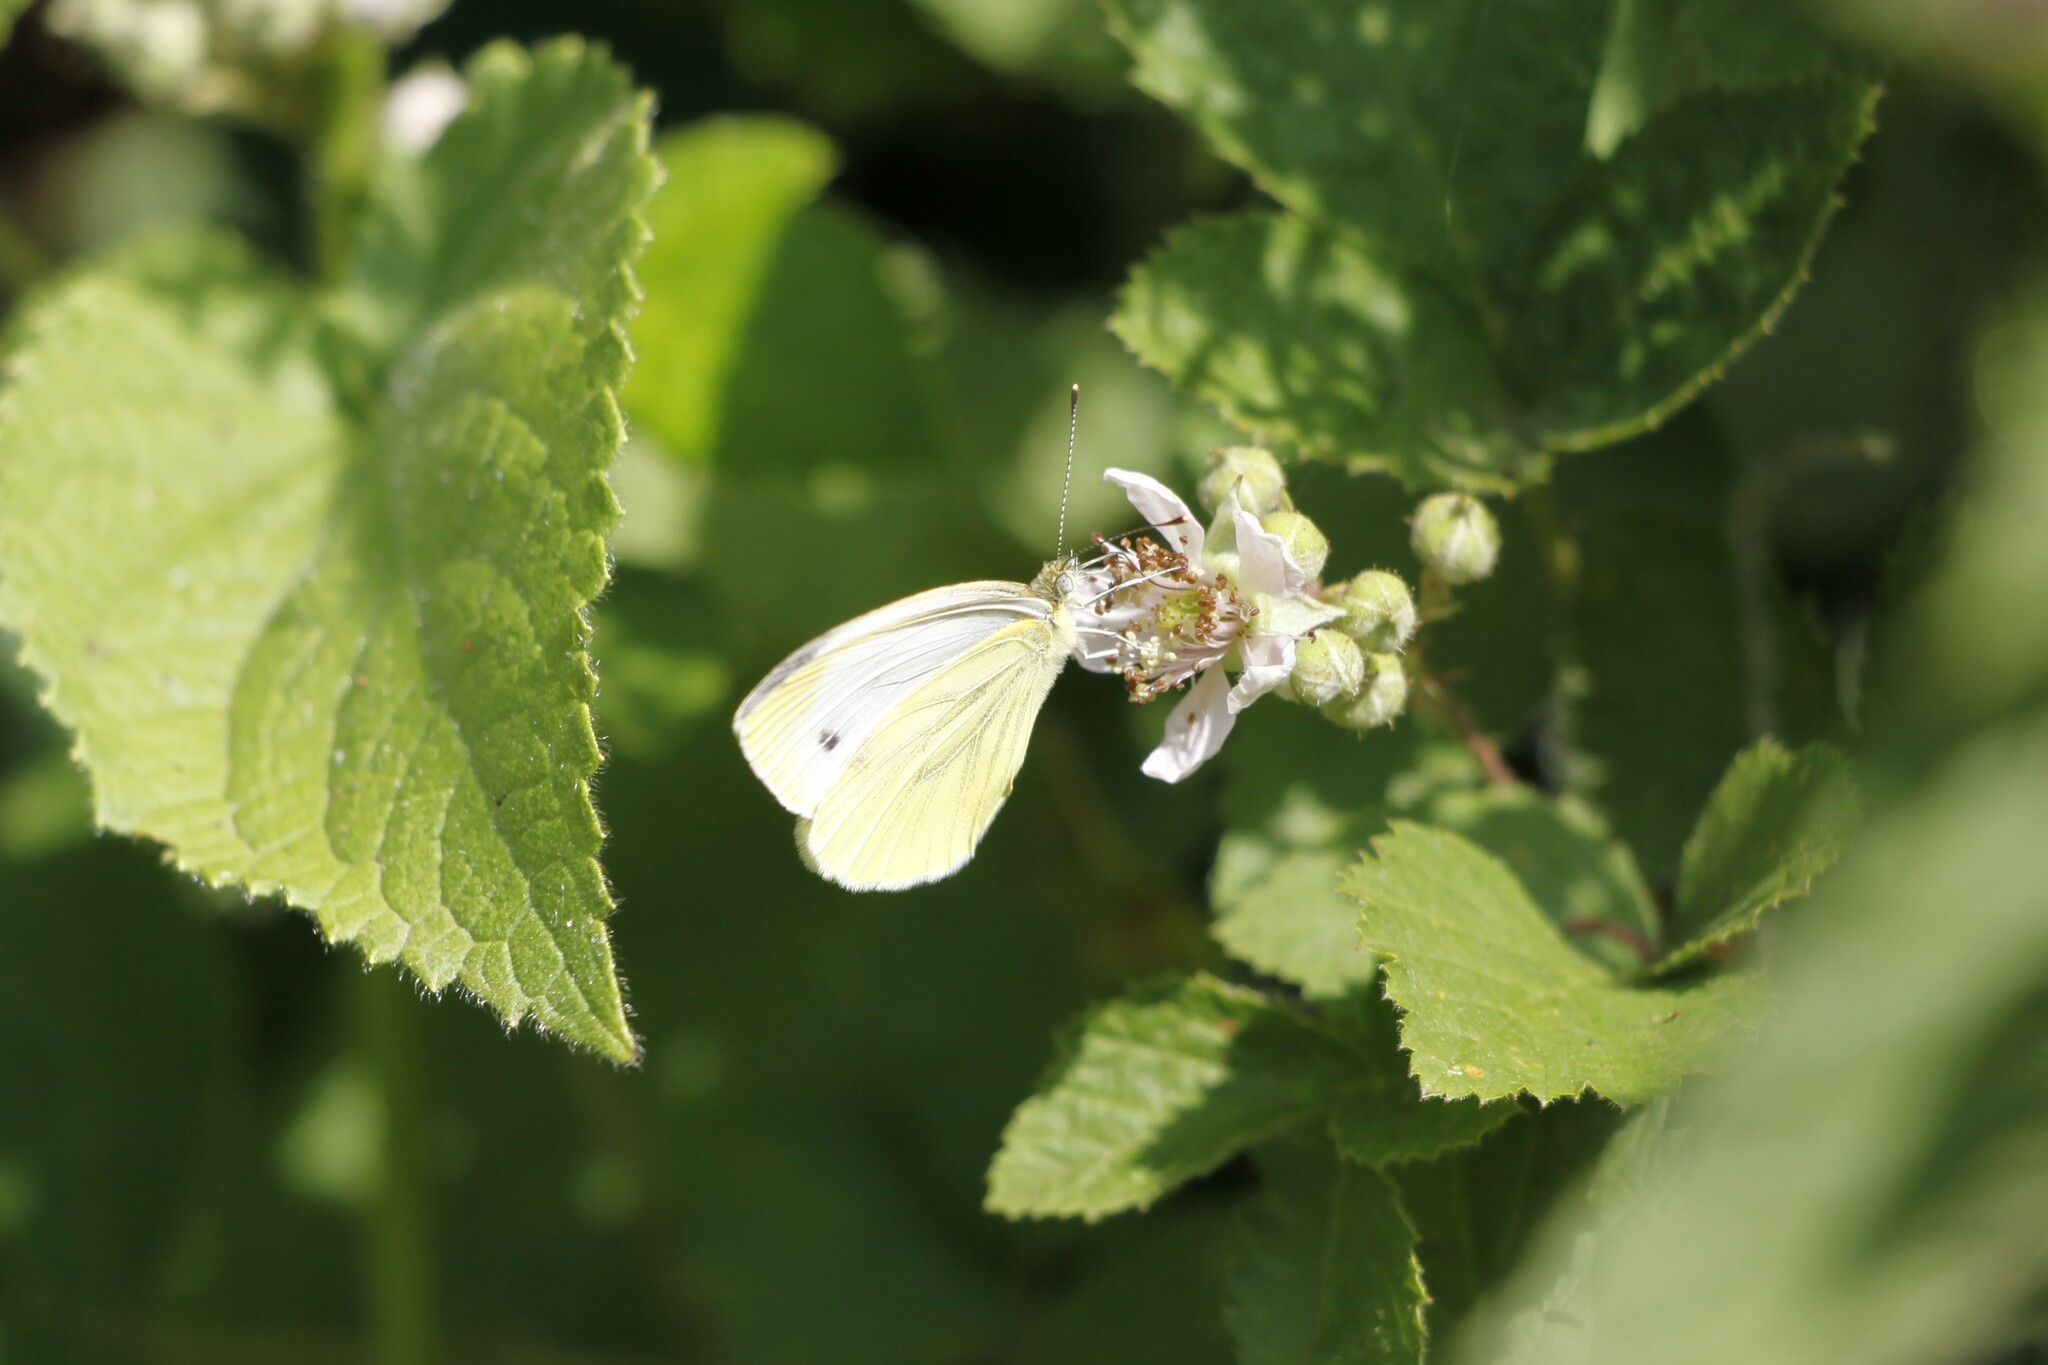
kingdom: Animalia
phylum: Arthropoda
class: Insecta
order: Lepidoptera
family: Pieridae
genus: Pieris
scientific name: Pieris napi
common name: Green-veined white
